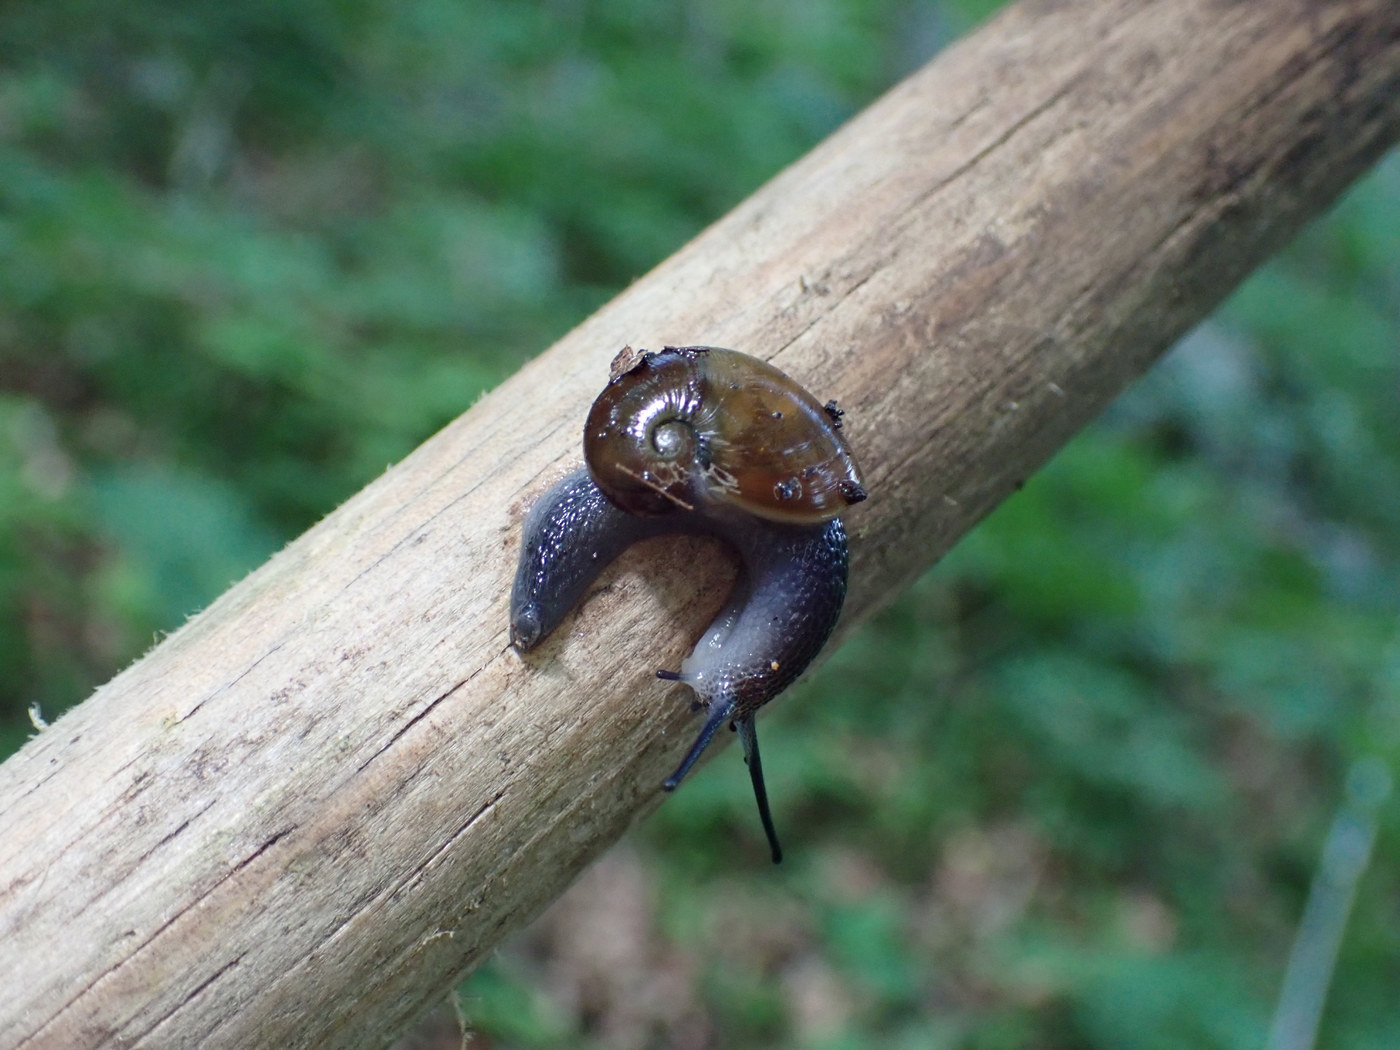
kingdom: Animalia
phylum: Mollusca
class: Gastropoda
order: Stylommatophora
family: Gastrodontidae
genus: Vitrinizonites
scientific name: Vitrinizonites latissimus
